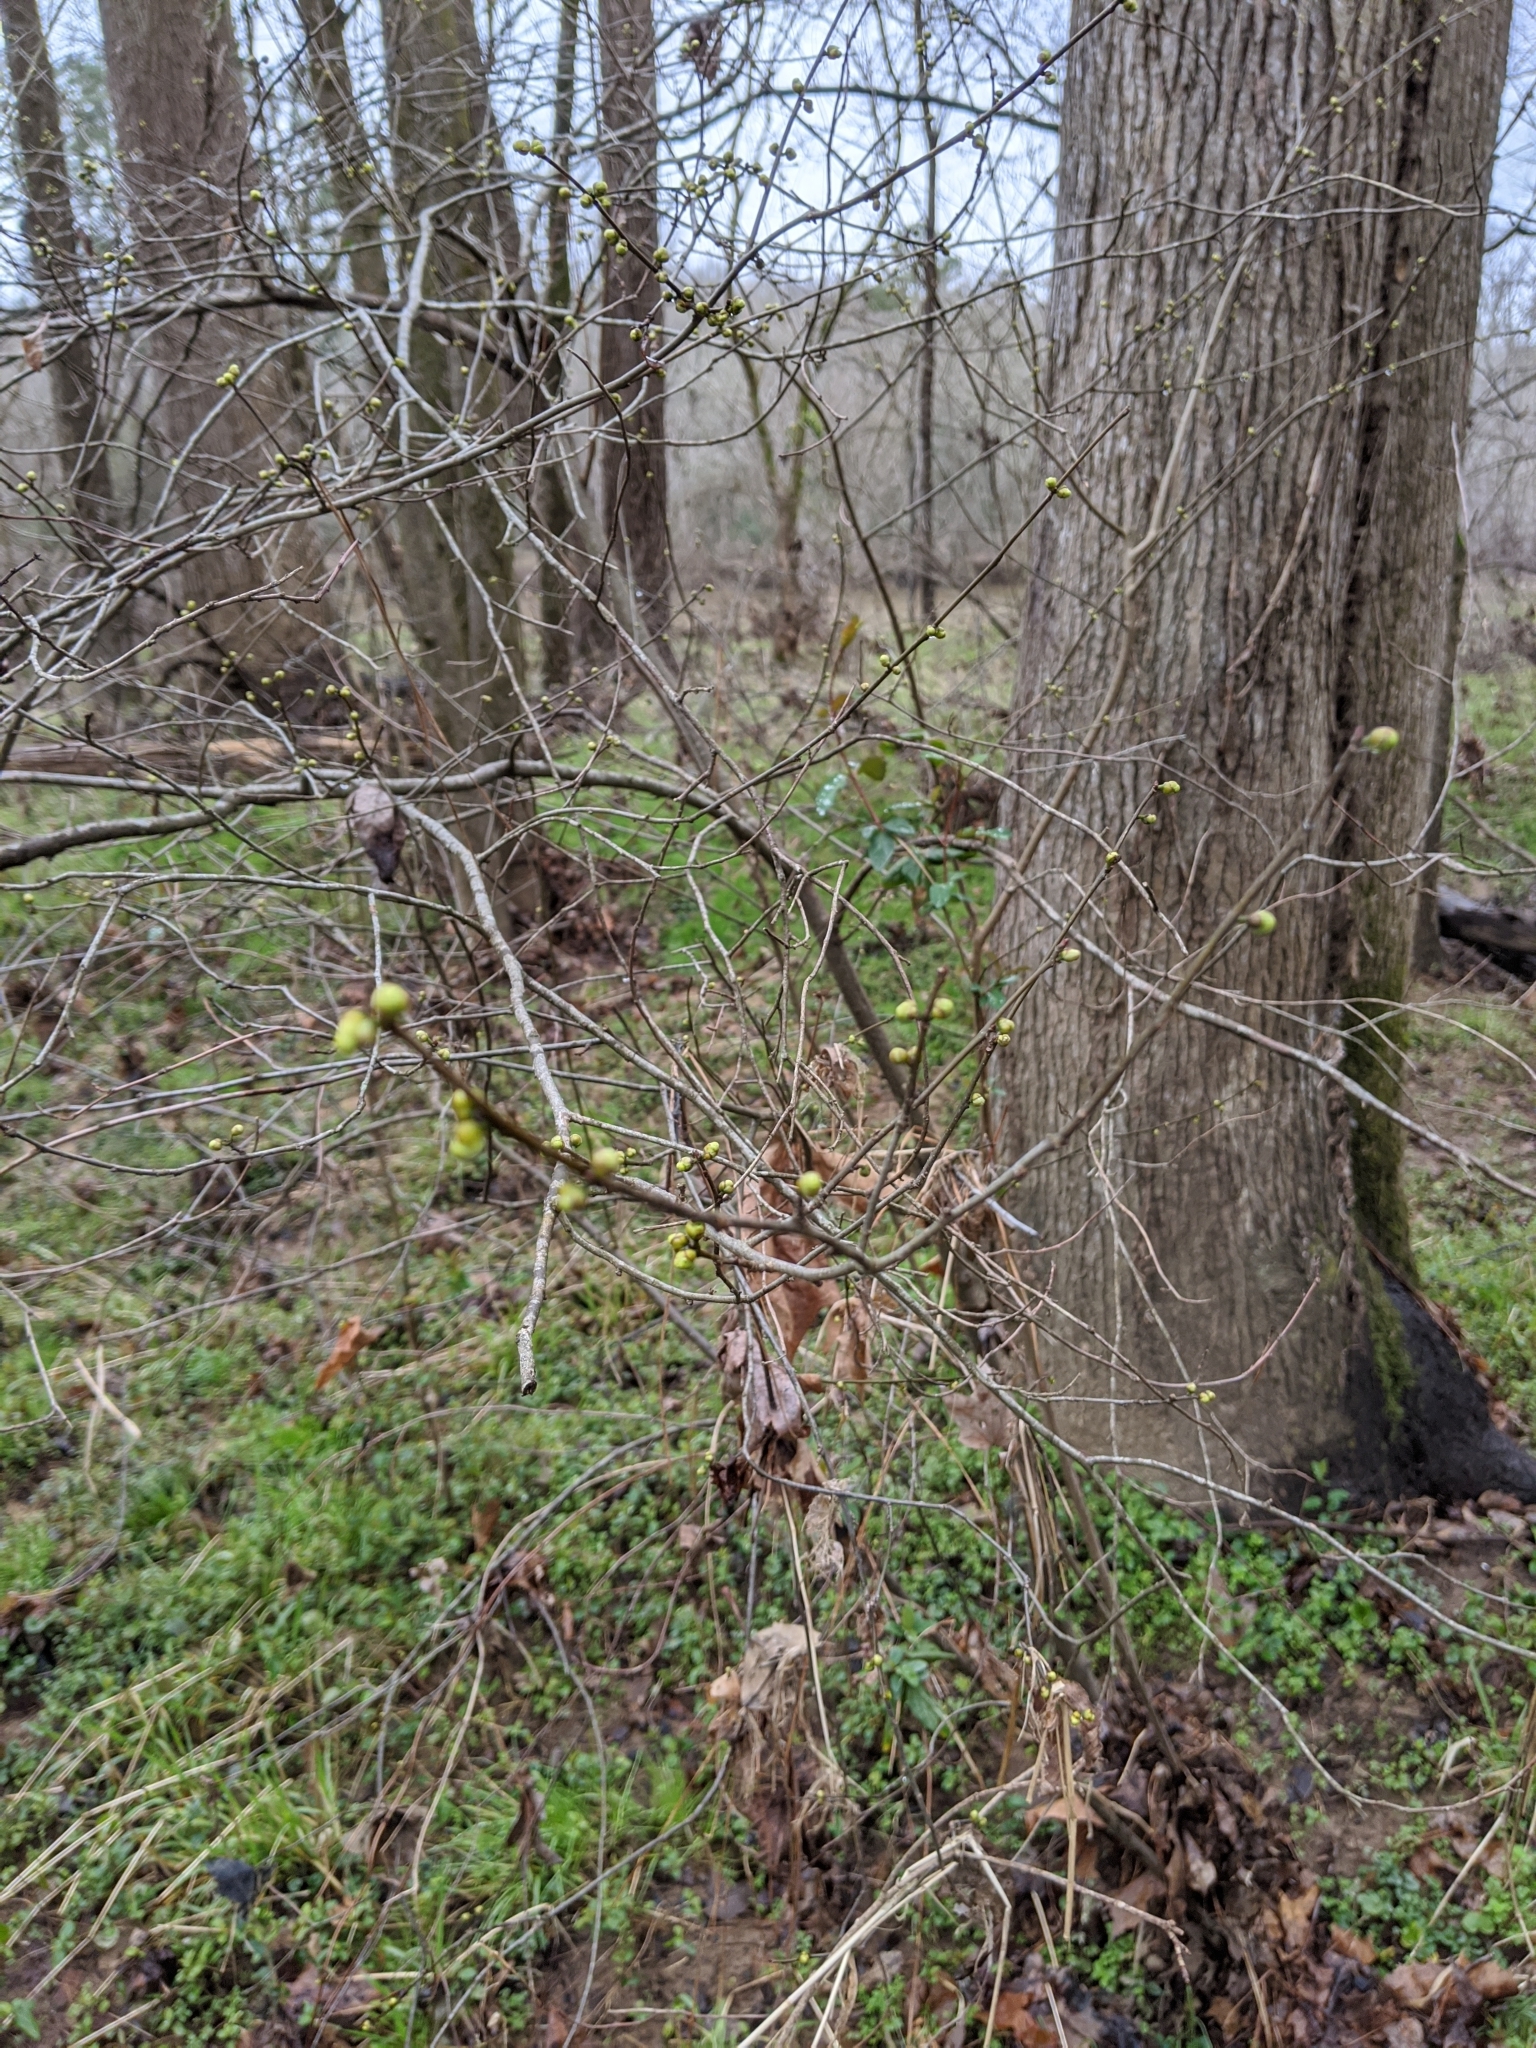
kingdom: Plantae
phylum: Tracheophyta
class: Magnoliopsida
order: Laurales
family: Lauraceae
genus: Lindera
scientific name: Lindera benzoin
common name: Spicebush
